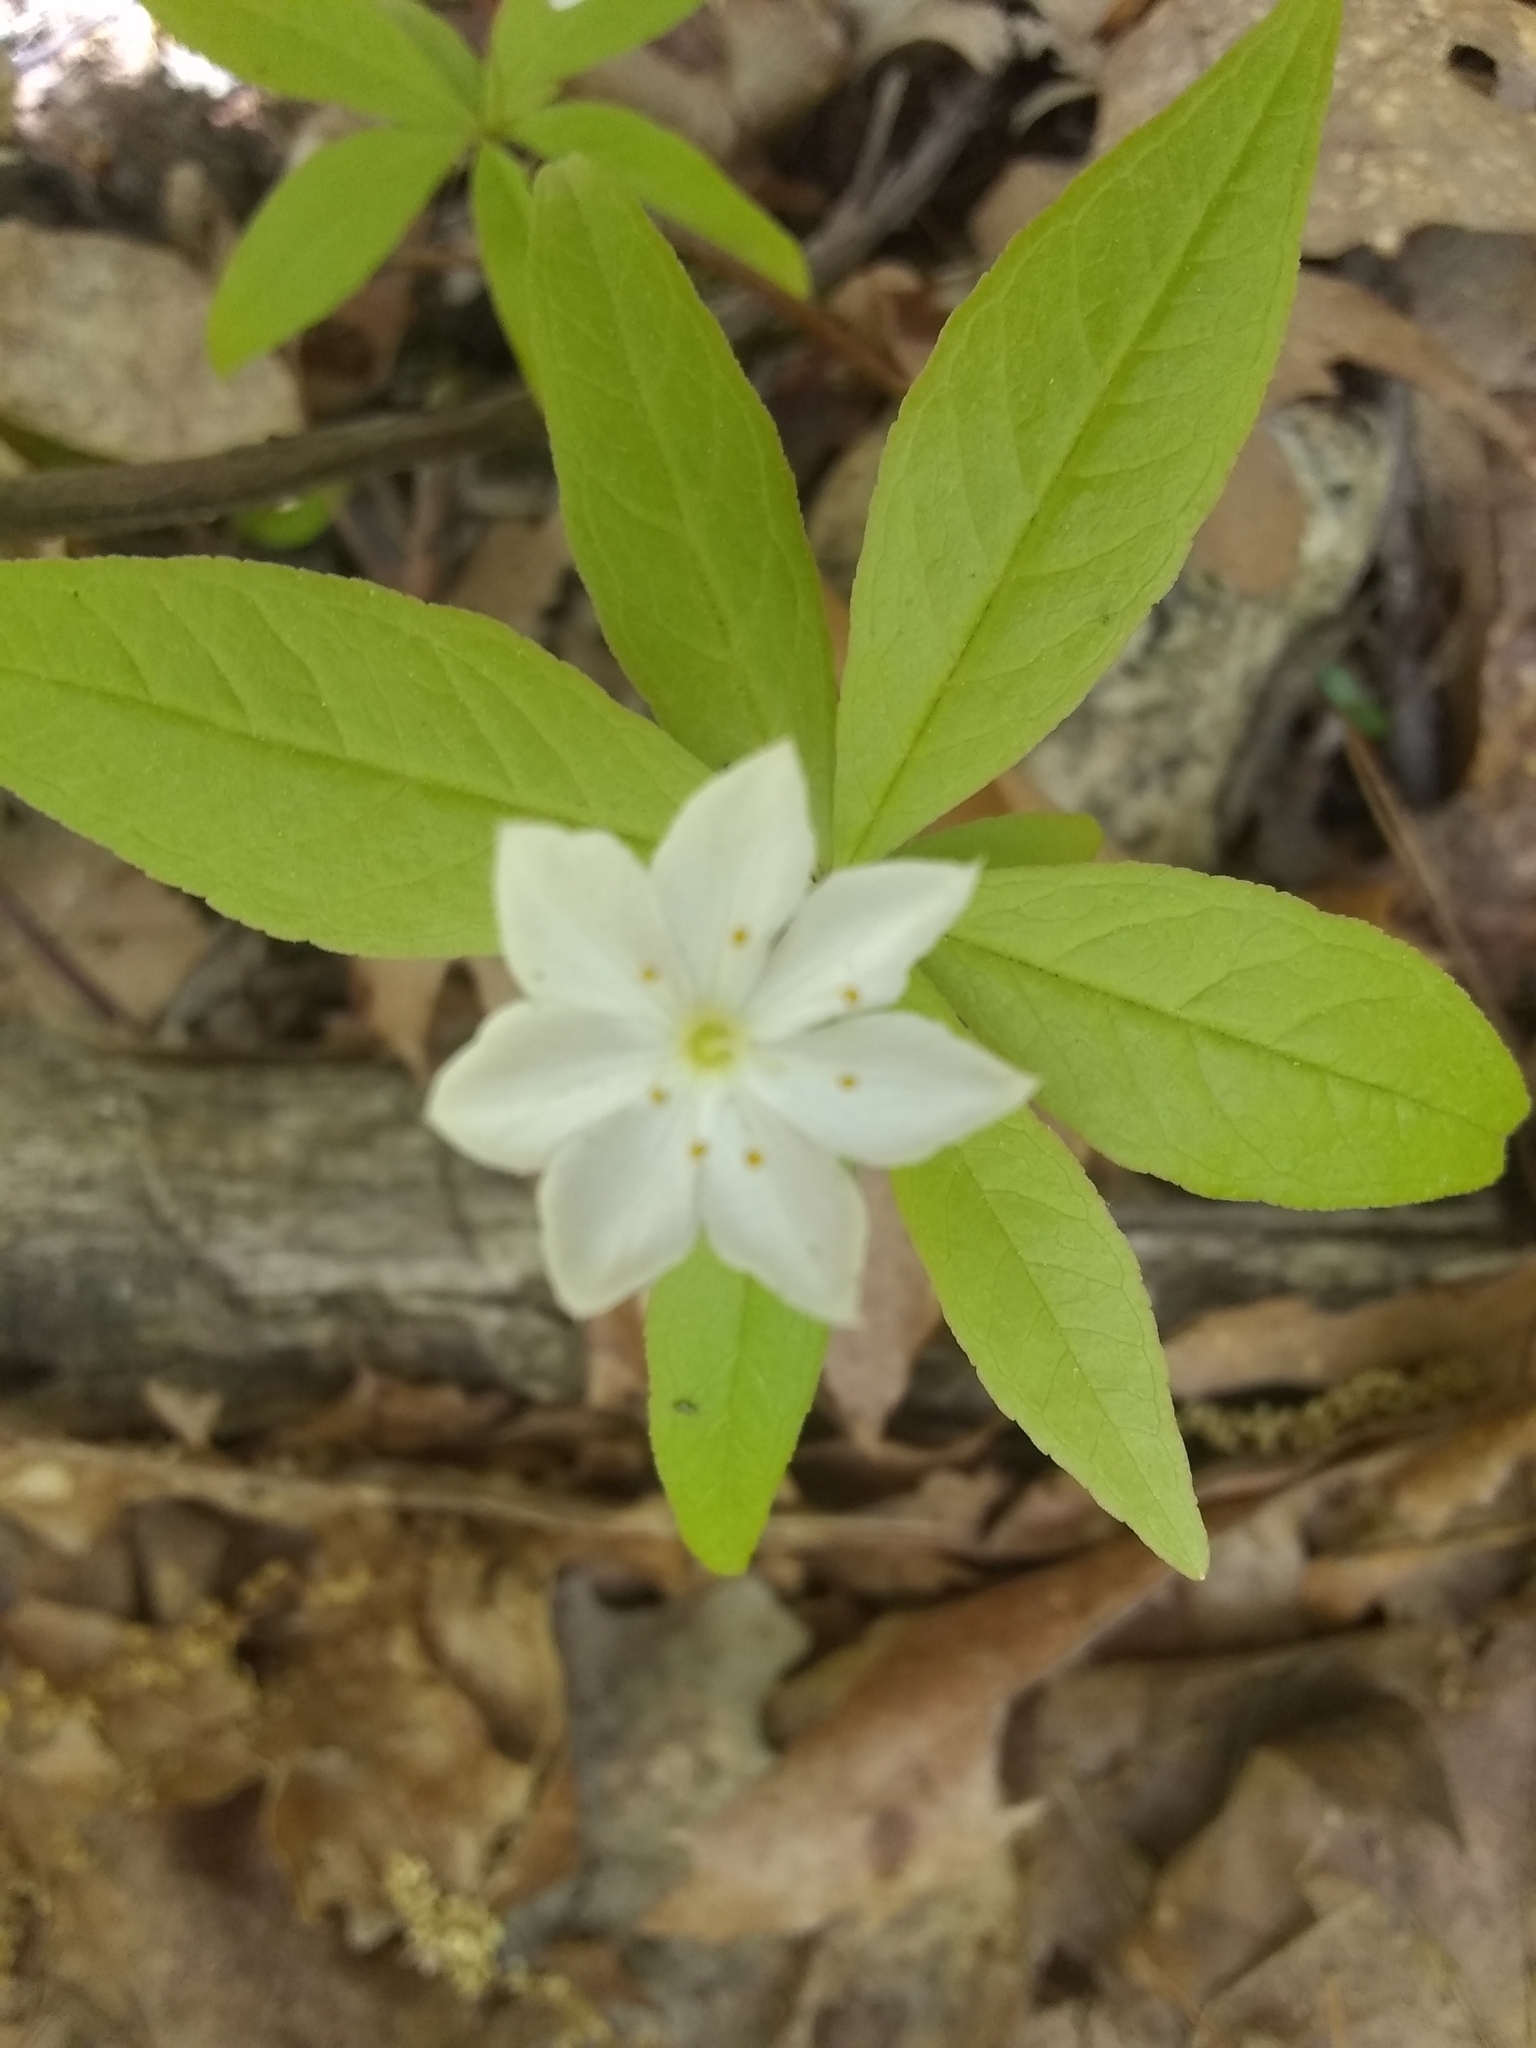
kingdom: Plantae
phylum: Tracheophyta
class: Magnoliopsida
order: Ericales
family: Primulaceae
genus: Lysimachia
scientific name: Lysimachia borealis
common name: American starflower
